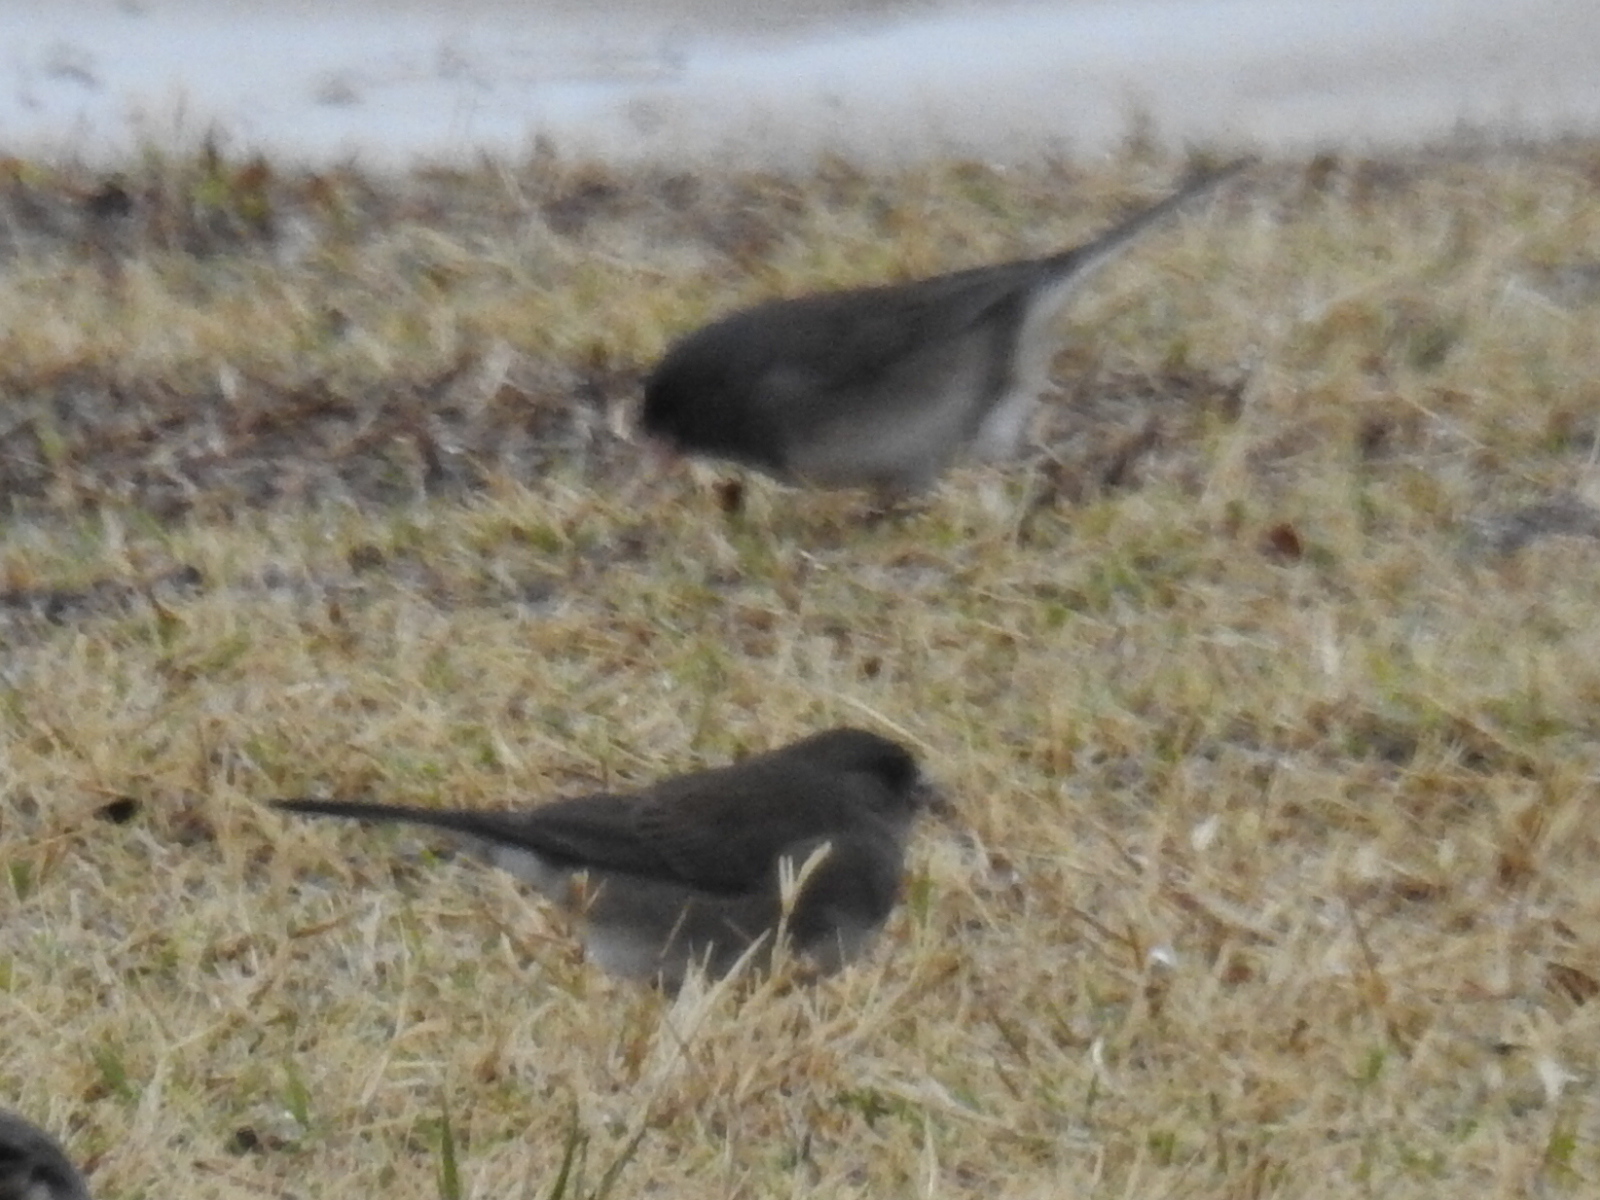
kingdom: Animalia
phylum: Chordata
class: Aves
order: Passeriformes
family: Passerellidae
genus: Junco
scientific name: Junco hyemalis
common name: Dark-eyed junco
